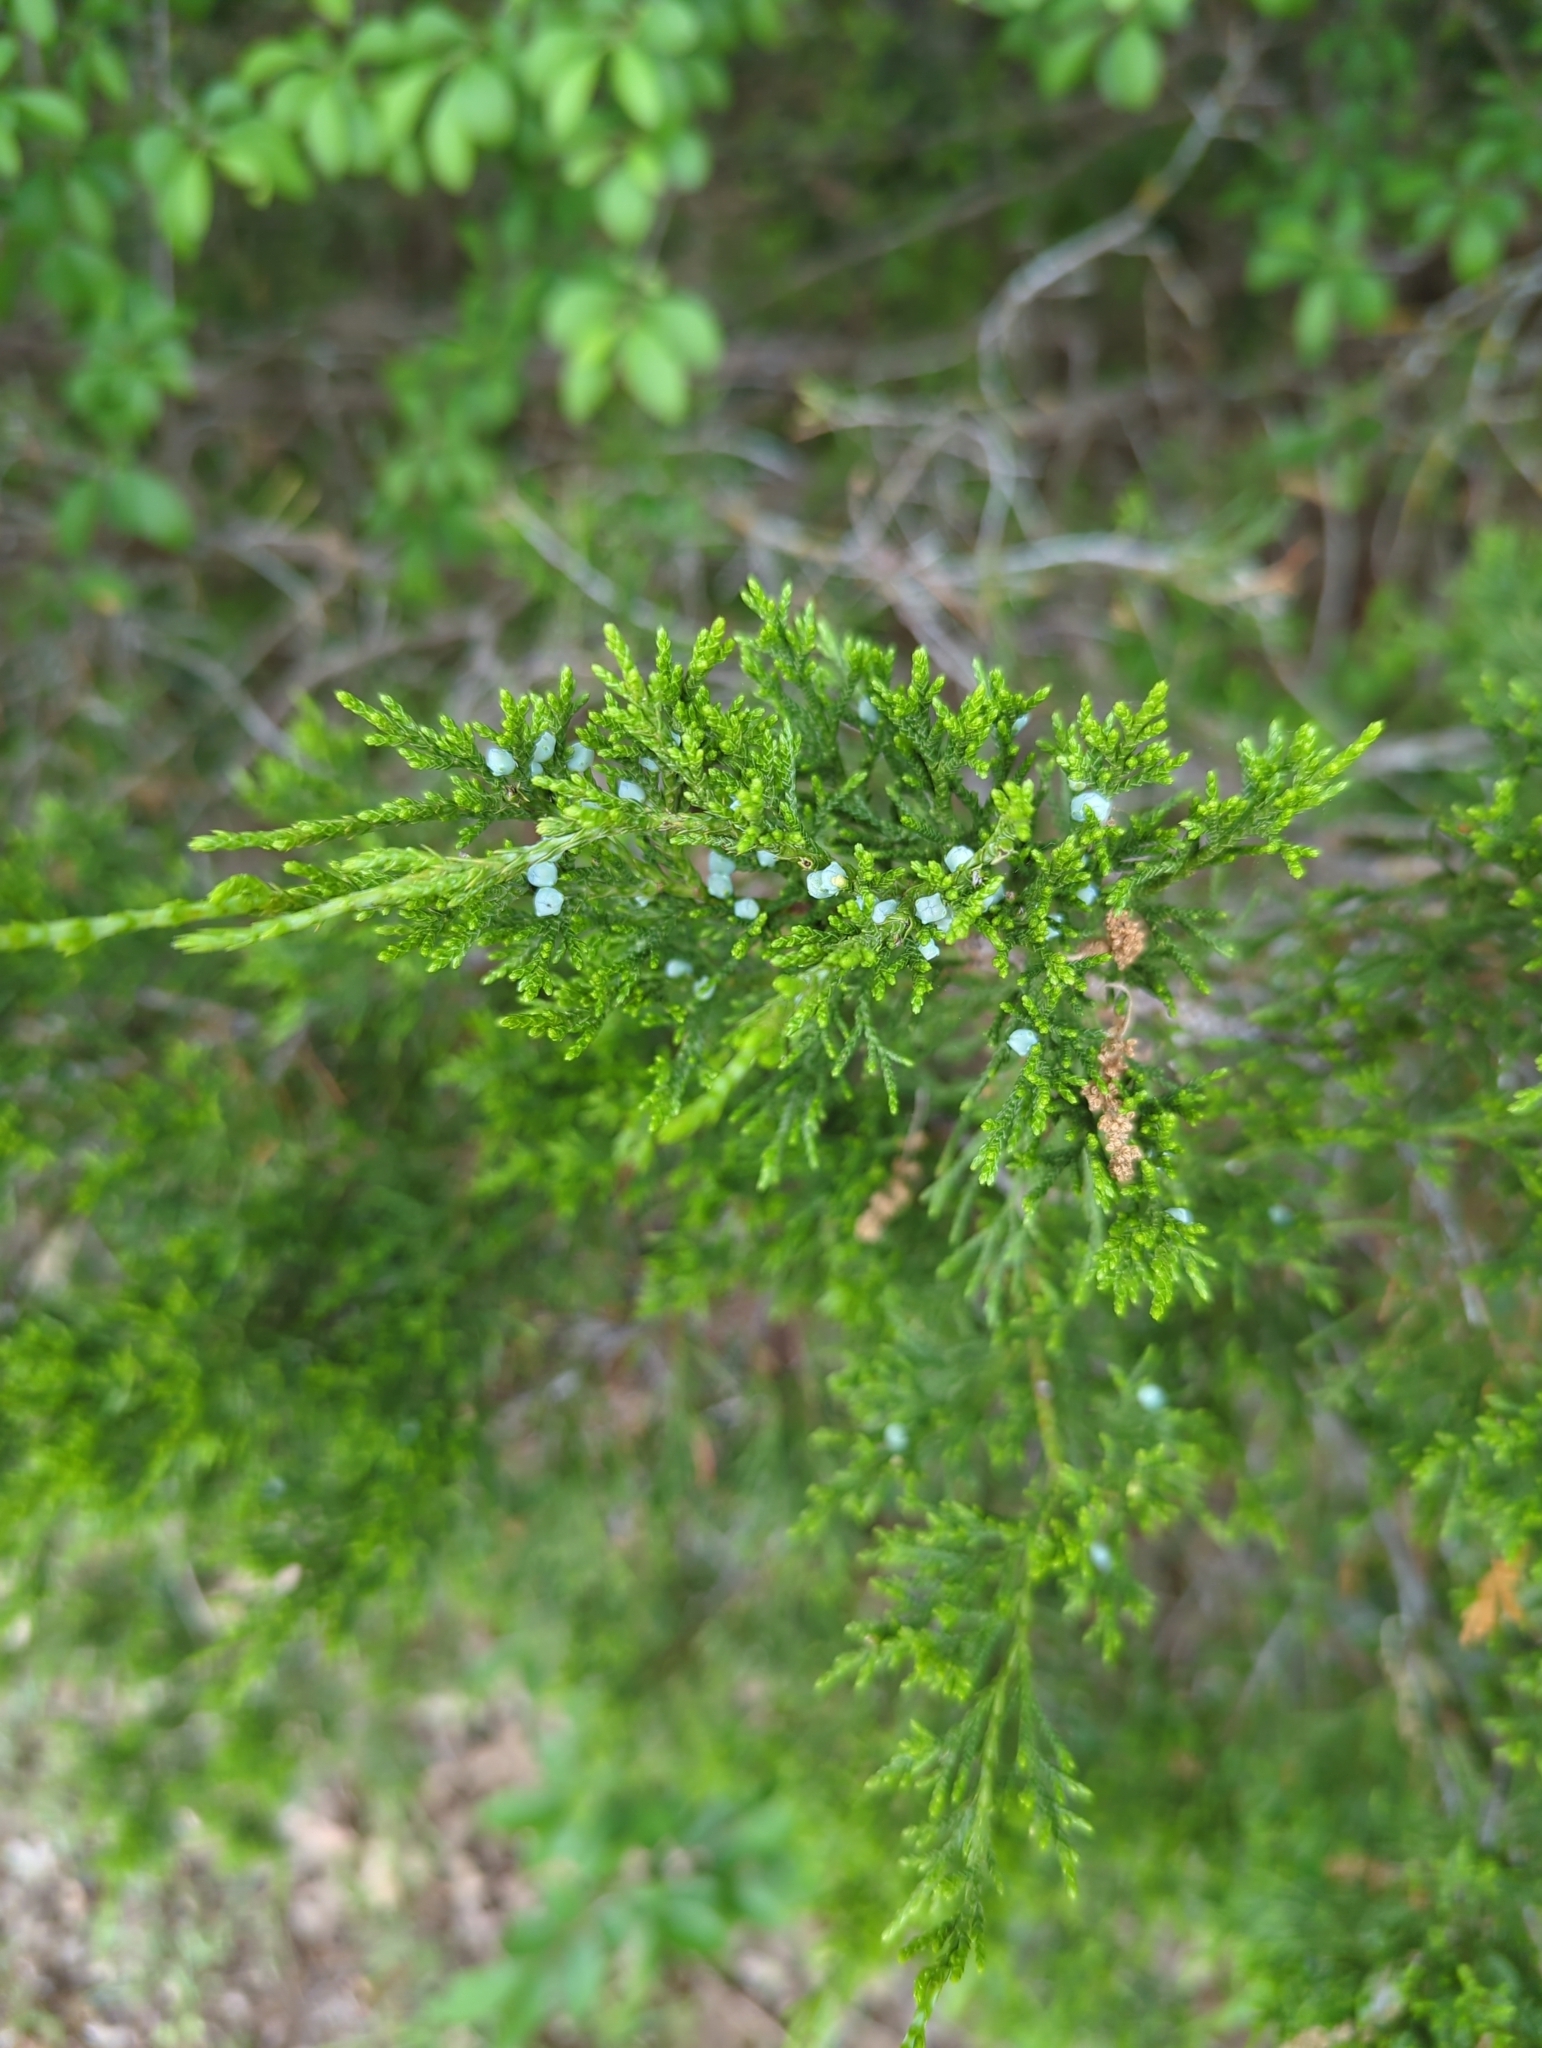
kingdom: Plantae
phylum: Tracheophyta
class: Pinopsida
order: Pinales
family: Cupressaceae
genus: Juniperus
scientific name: Juniperus virginiana
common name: Red juniper
